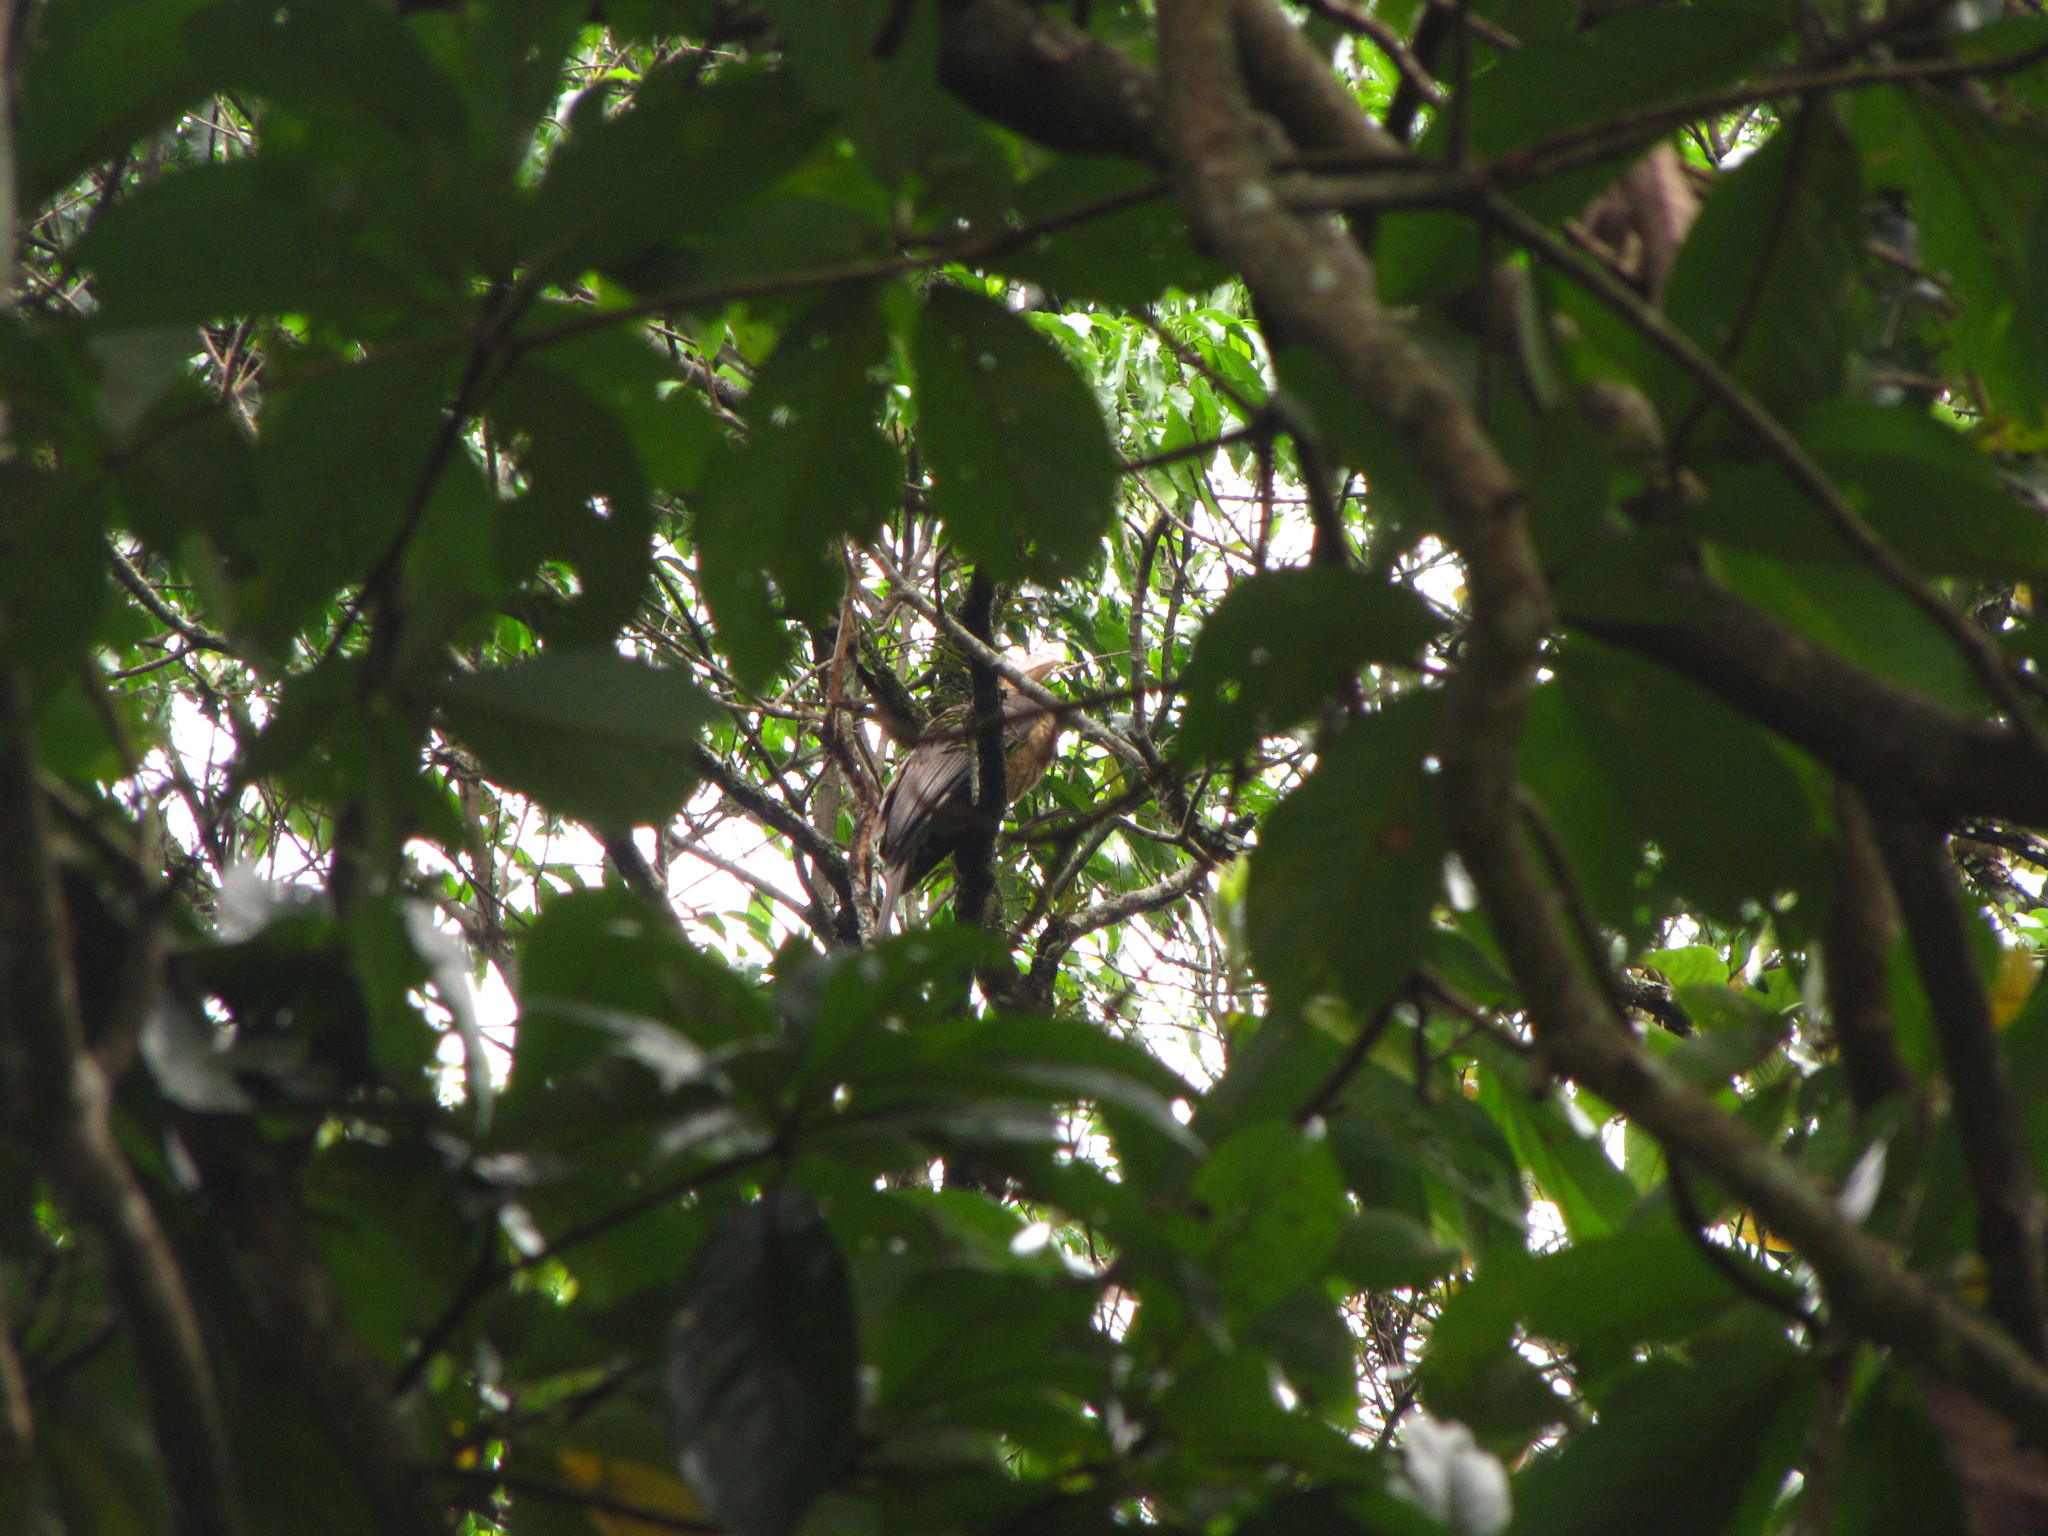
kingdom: Animalia
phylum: Chordata
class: Aves
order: Bucerotiformes
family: Bucerotidae
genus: Anorrhinus
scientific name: Anorrhinus austeni
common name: Austen's brown hornbill
